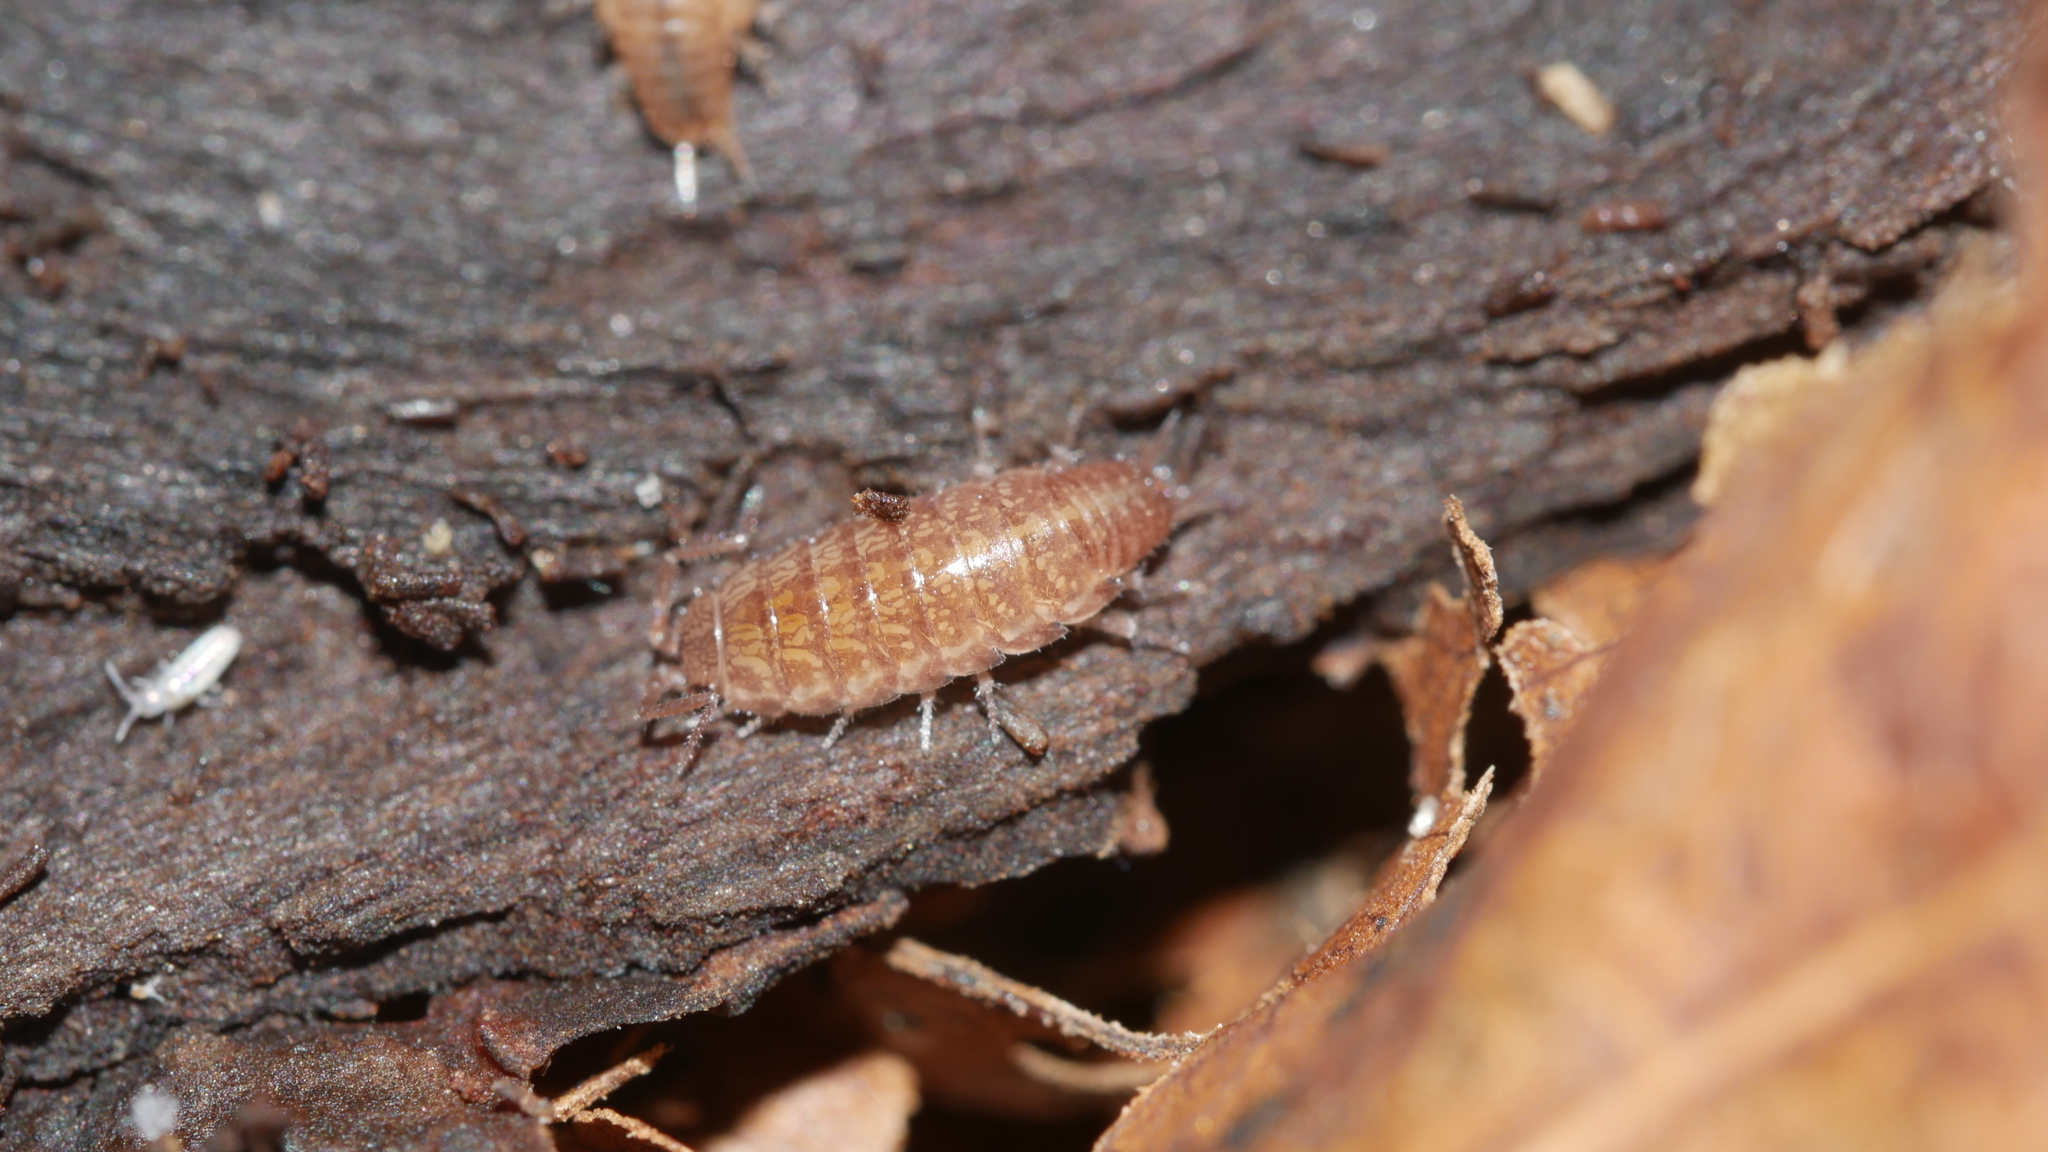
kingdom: Animalia
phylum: Arthropoda
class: Malacostraca
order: Isopoda
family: Philosciidae
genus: Chaetophiloscia
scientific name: Chaetophiloscia sicula
